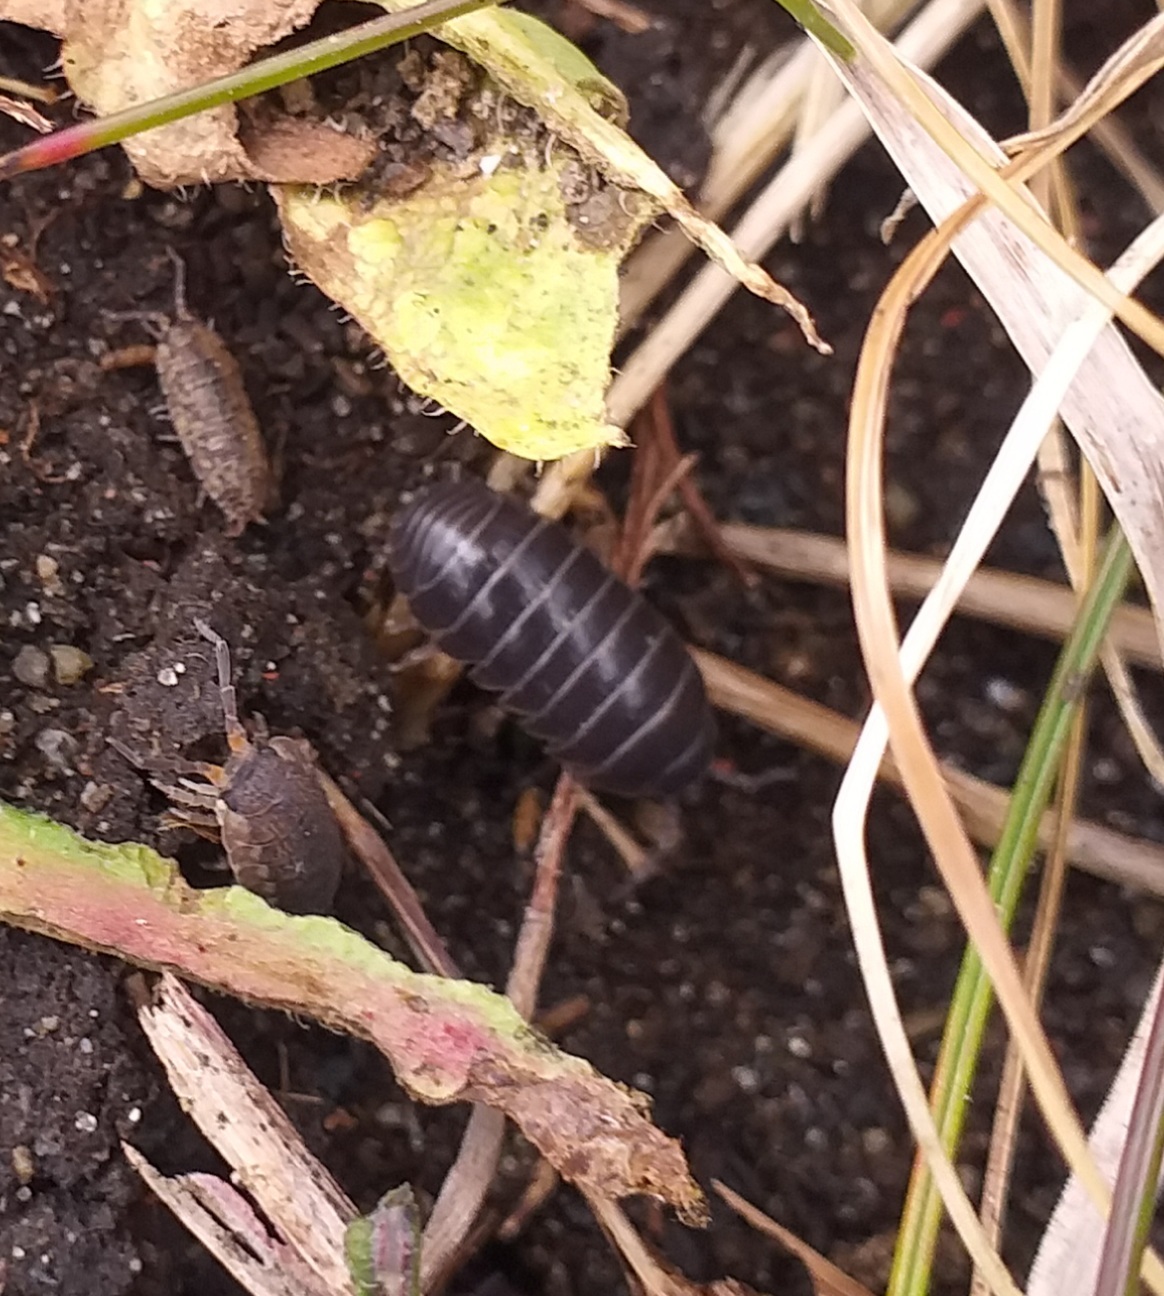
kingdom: Animalia
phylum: Arthropoda
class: Malacostraca
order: Isopoda
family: Armadillidiidae
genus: Armadillidium
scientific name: Armadillidium vulgare
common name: Common pill woodlouse
